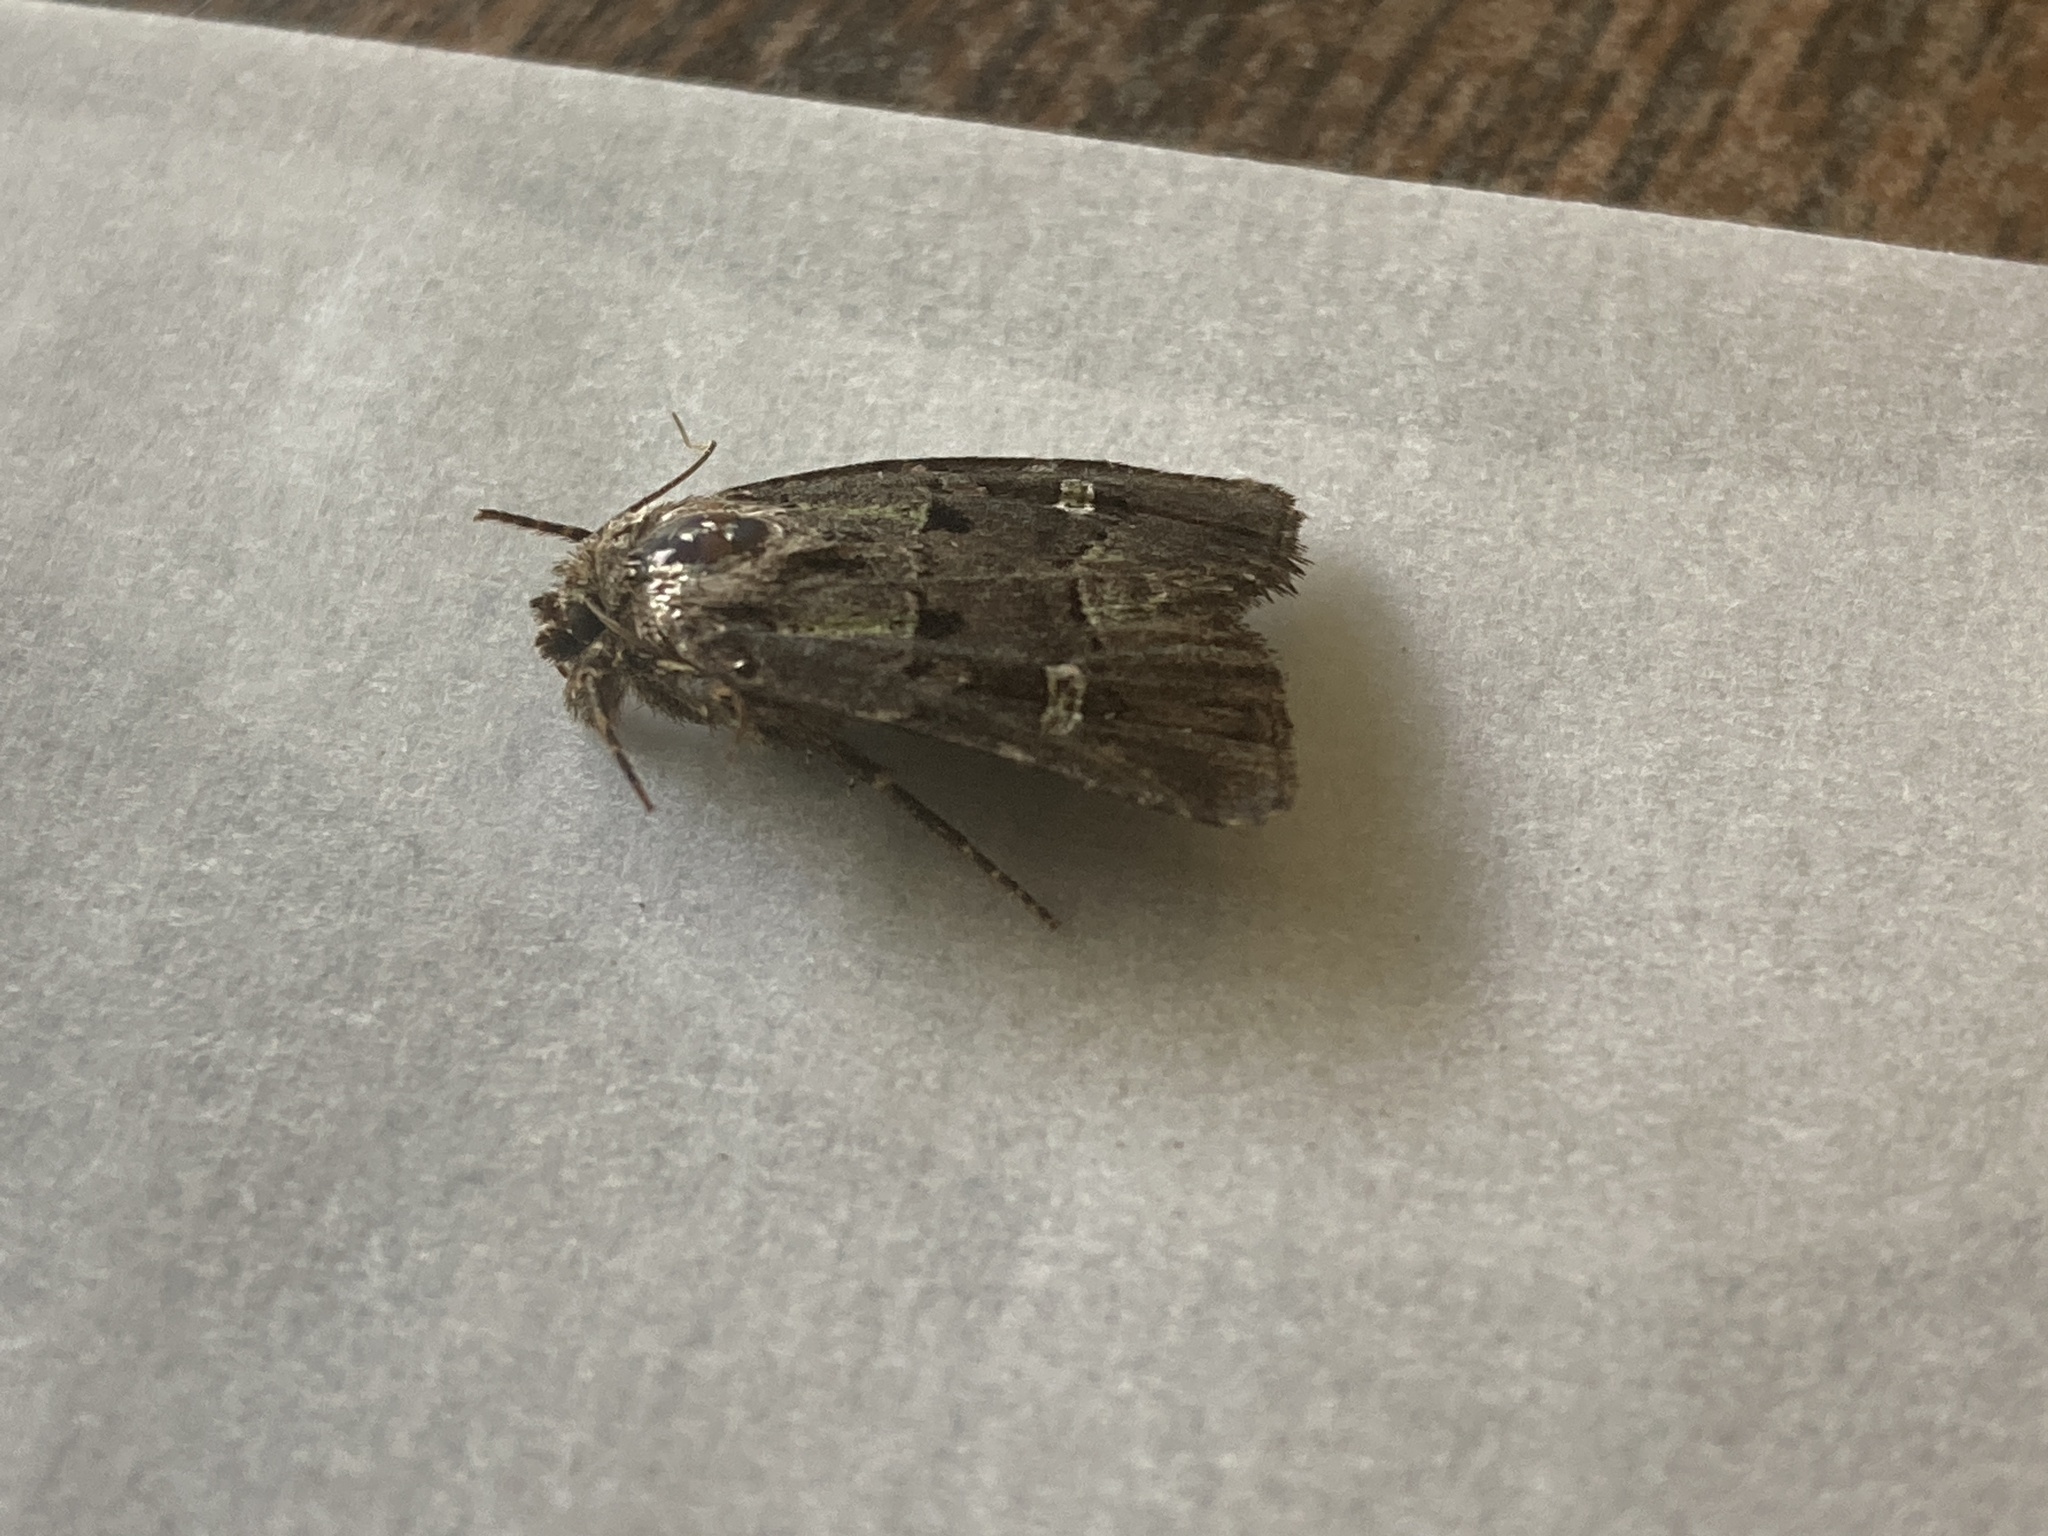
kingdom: Animalia
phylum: Arthropoda
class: Insecta
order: Lepidoptera
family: Noctuidae
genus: Lacinipolia
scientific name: Lacinipolia renigera
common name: Kidney-spotted minor
